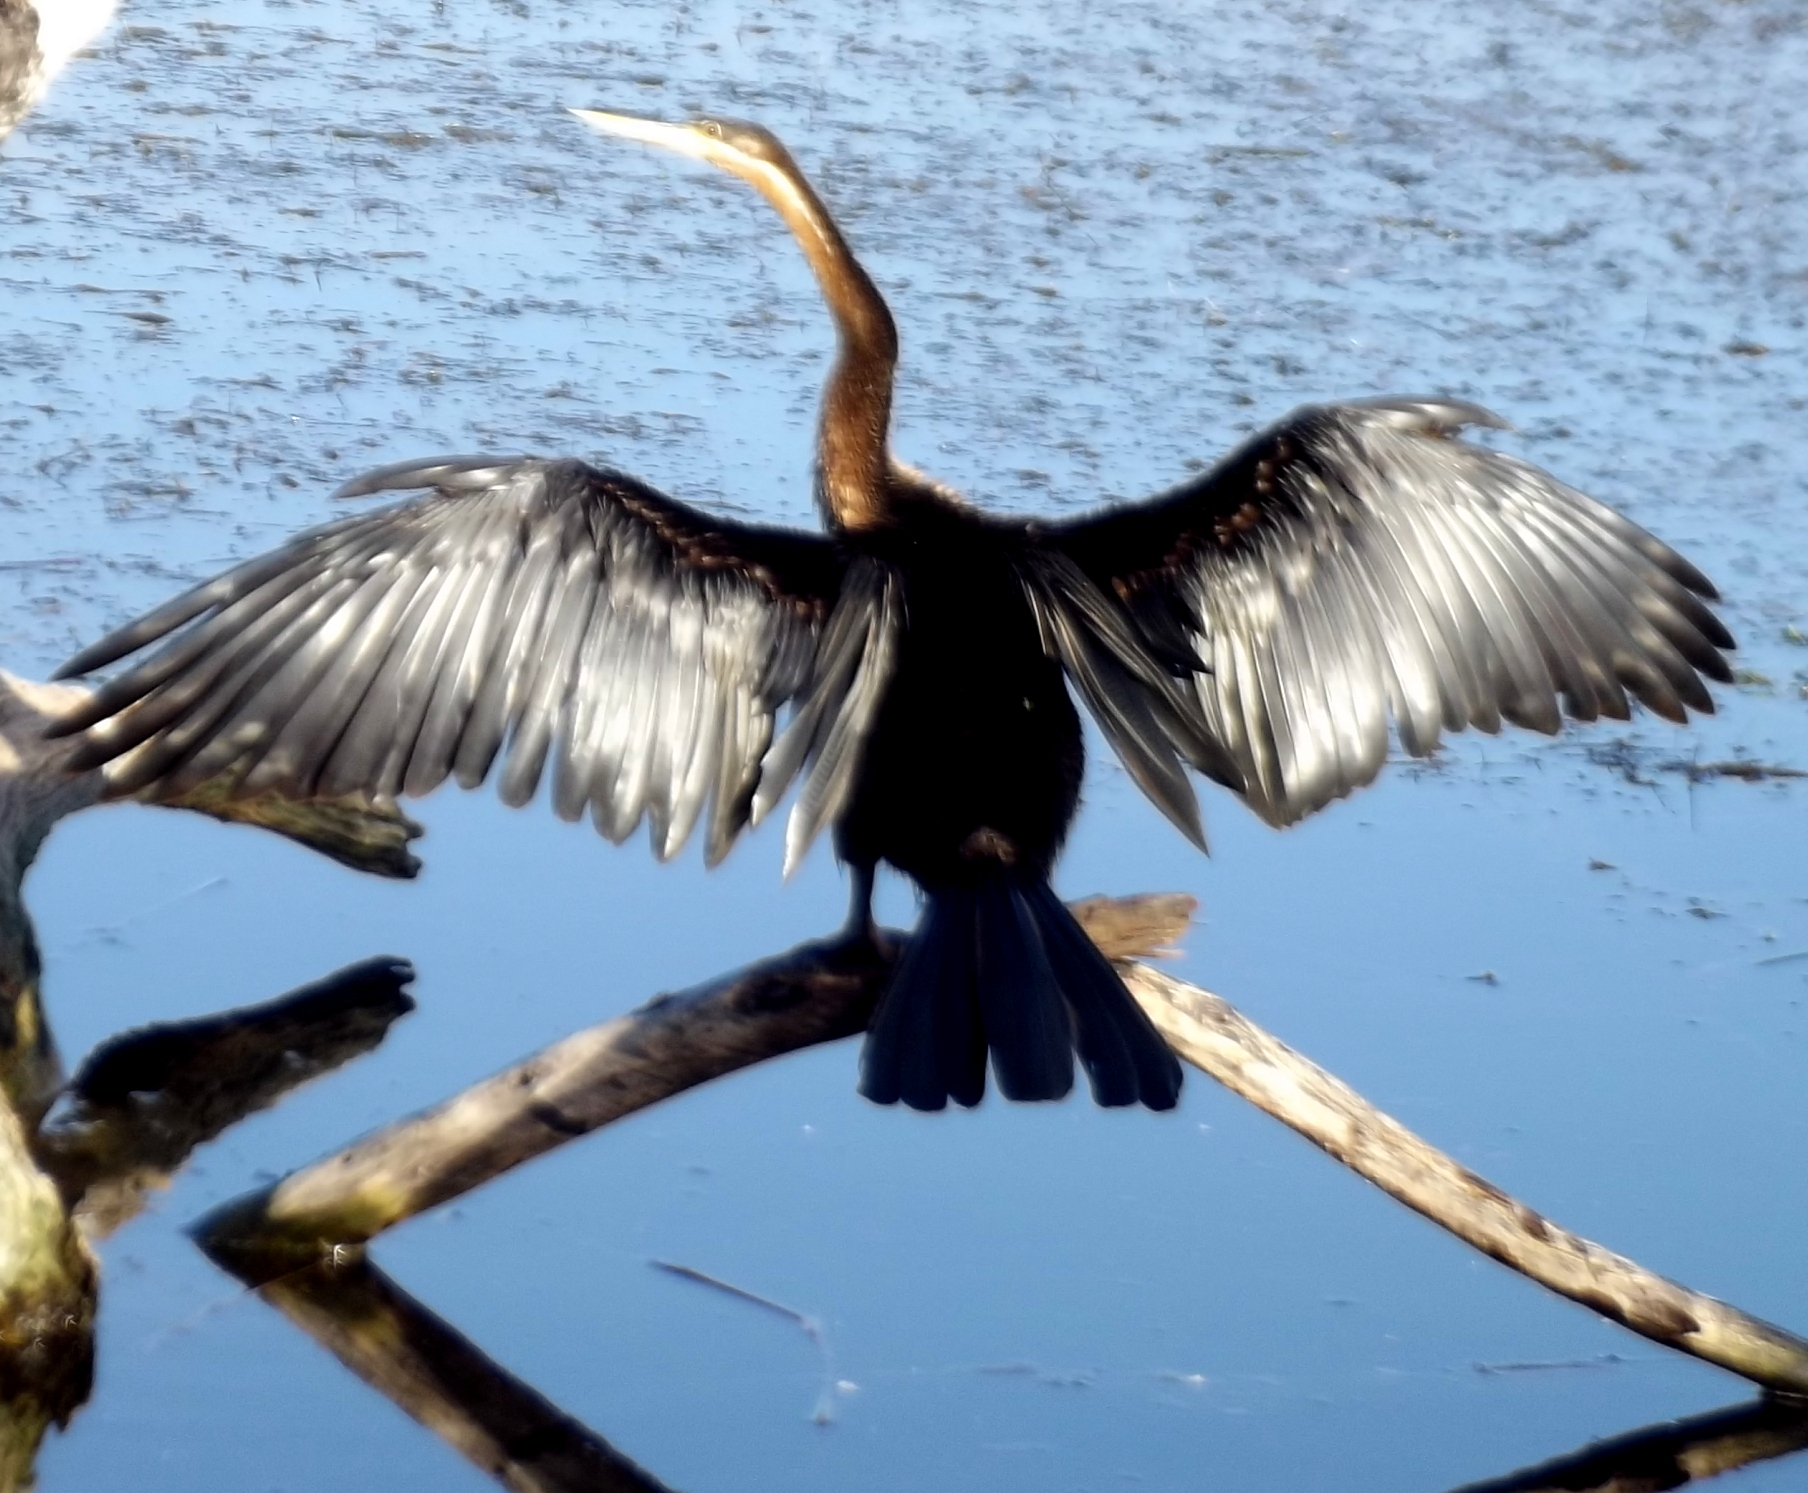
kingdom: Animalia
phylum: Chordata
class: Aves
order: Suliformes
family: Anhingidae
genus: Anhinga
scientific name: Anhinga rufa
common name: African darter
